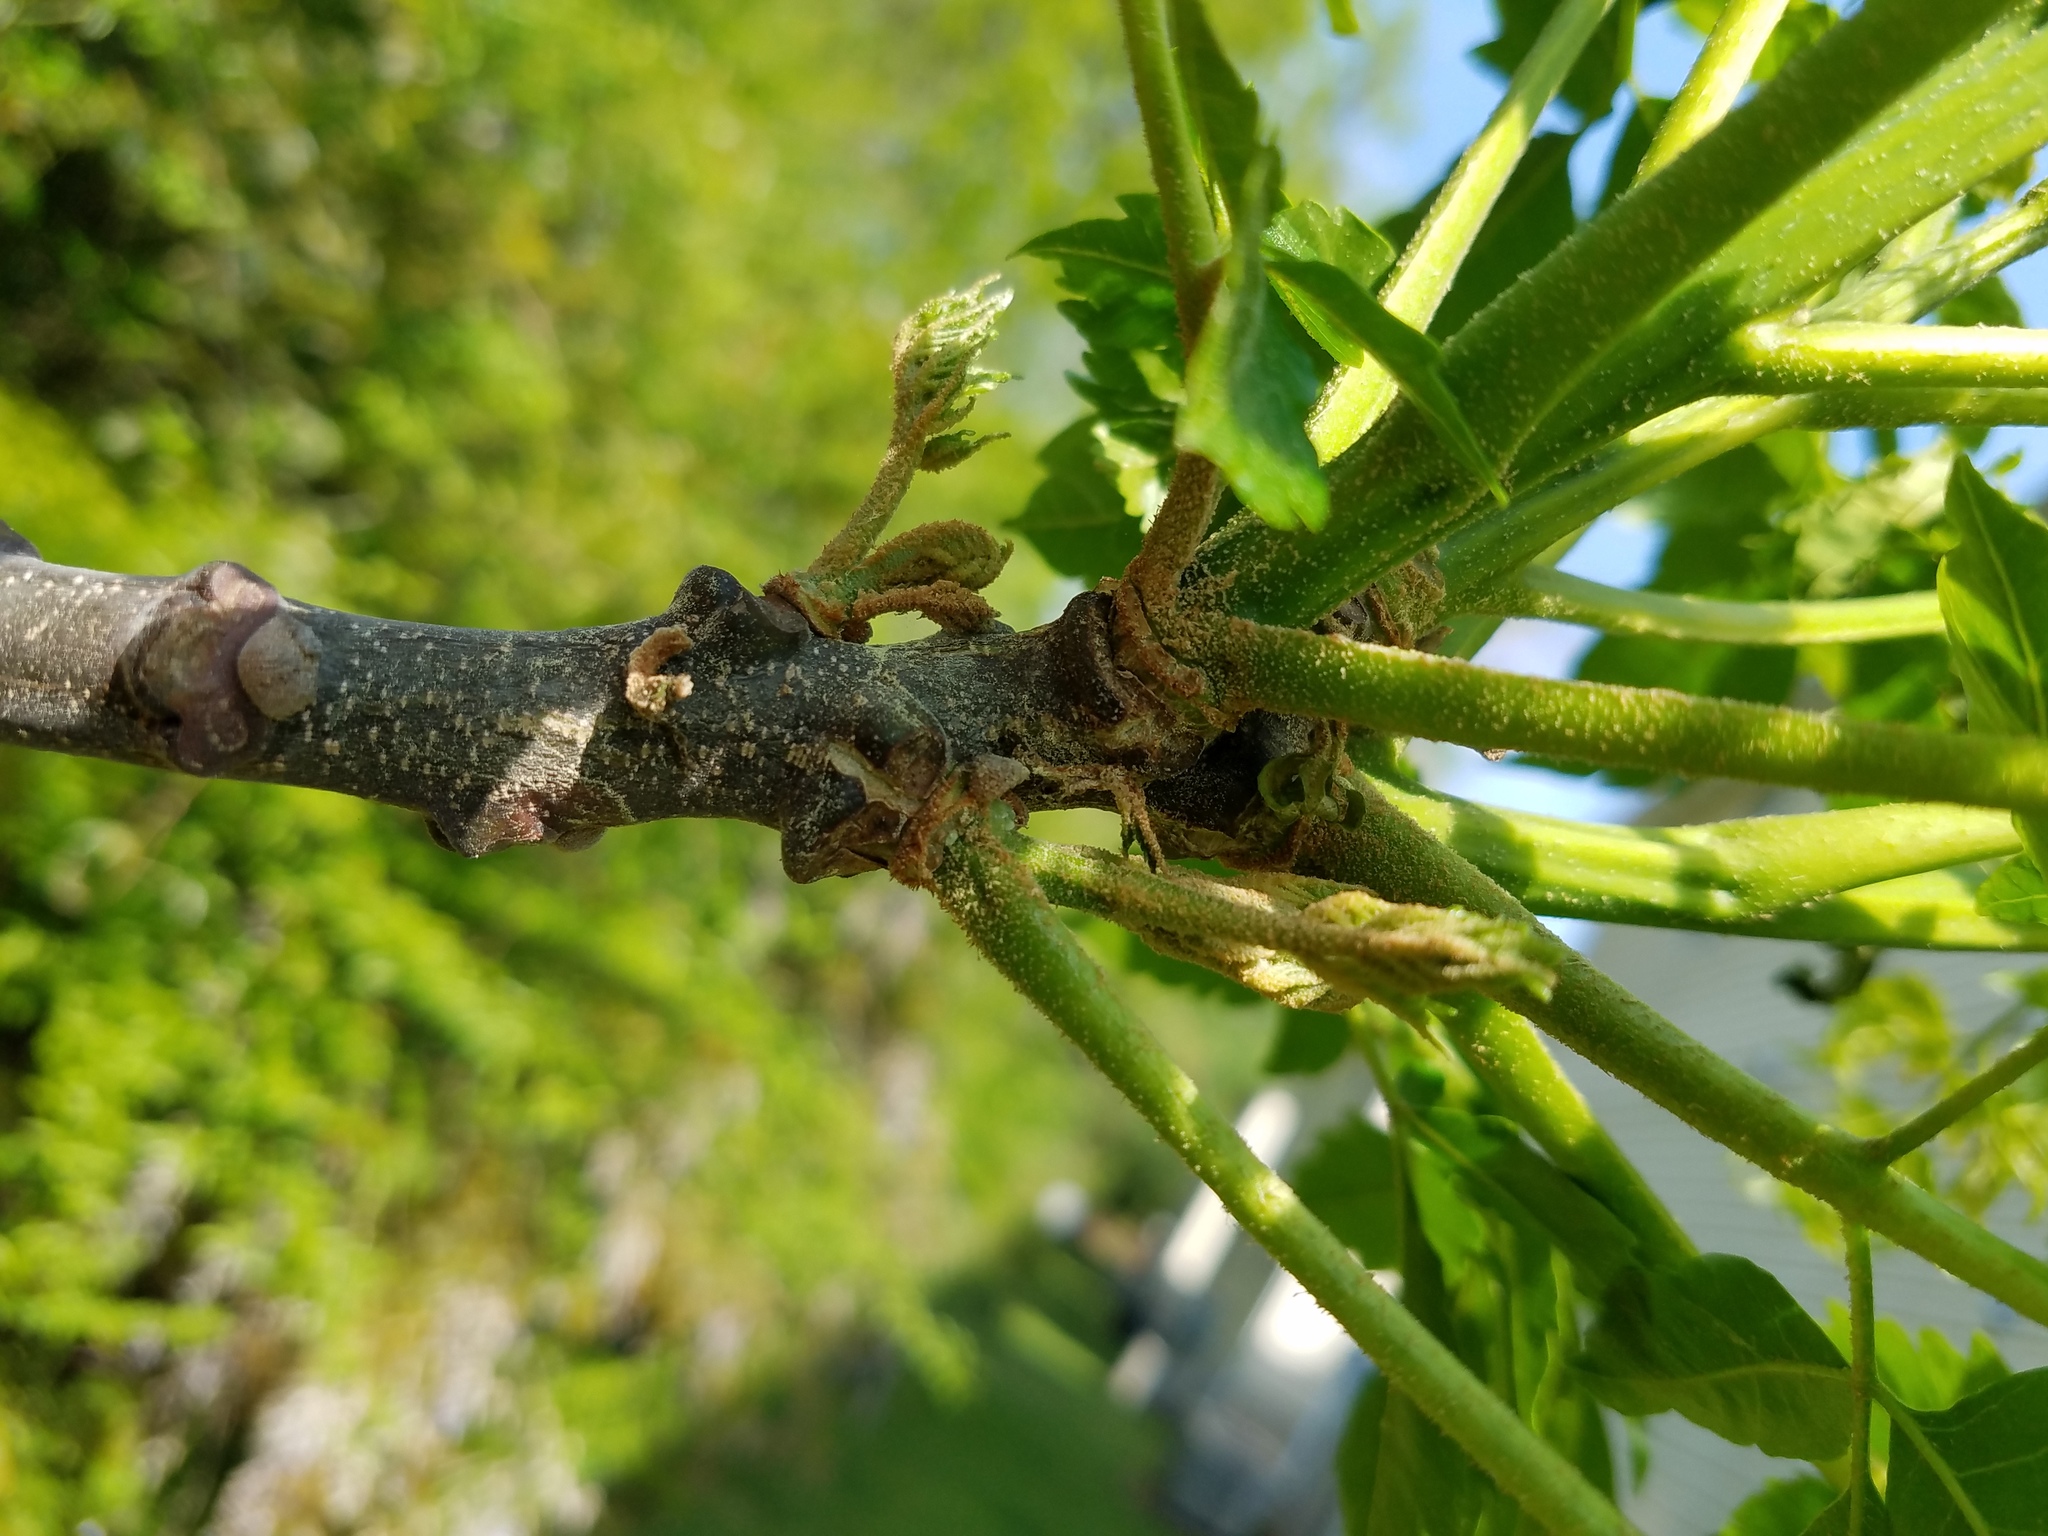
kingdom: Plantae
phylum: Tracheophyta
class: Magnoliopsida
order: Sapindales
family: Meliaceae
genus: Melia
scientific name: Melia azedarach
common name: Chinaberrytree
